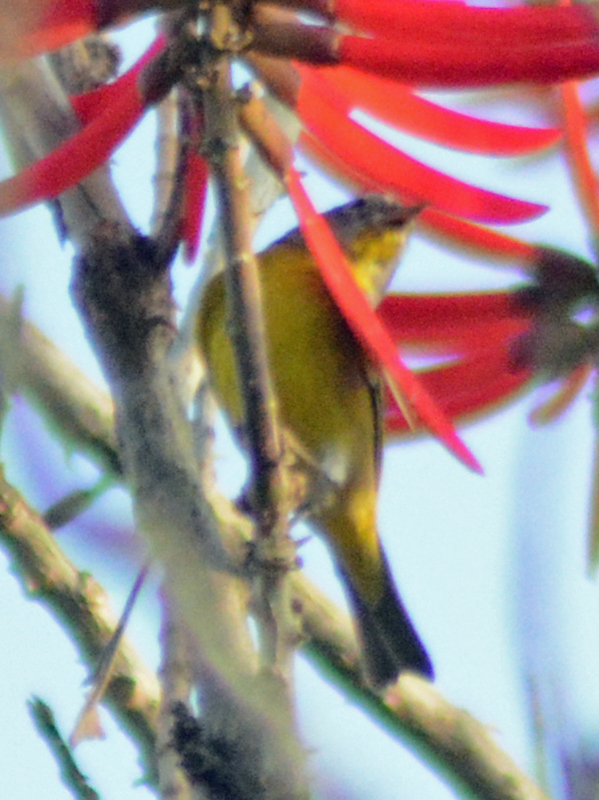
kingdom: Animalia
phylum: Chordata
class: Aves
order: Passeriformes
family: Parulidae
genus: Leiothlypis
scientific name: Leiothlypis ruficapilla
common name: Nashville warbler
